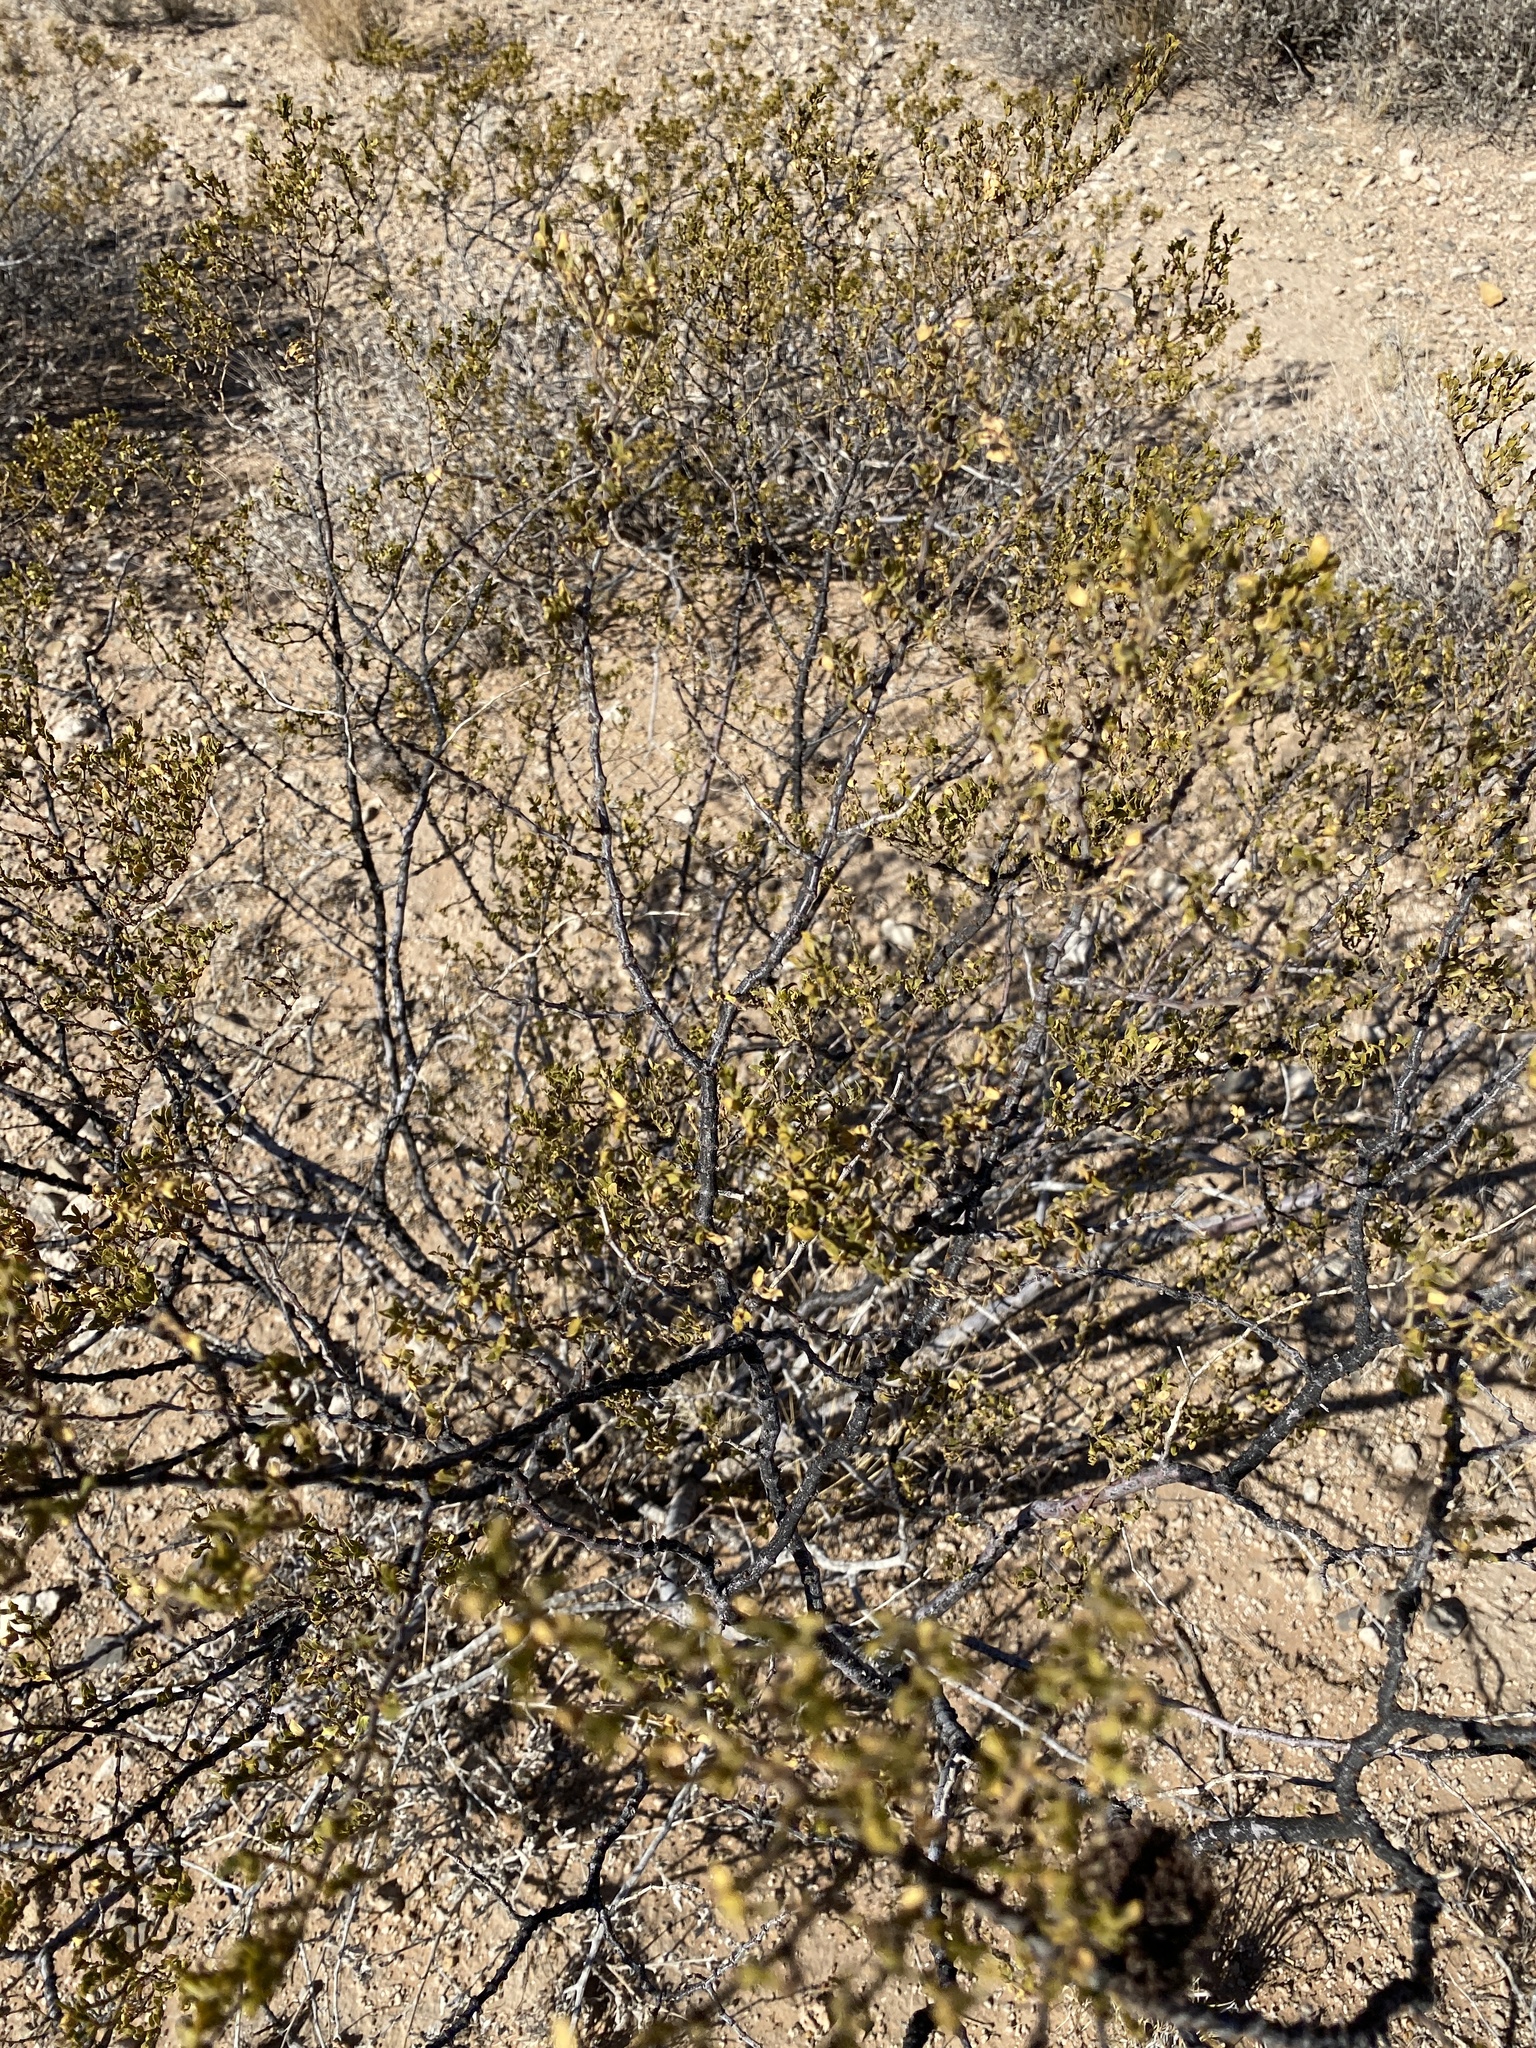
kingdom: Plantae
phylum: Tracheophyta
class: Magnoliopsida
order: Zygophyllales
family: Zygophyllaceae
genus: Larrea
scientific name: Larrea tridentata
